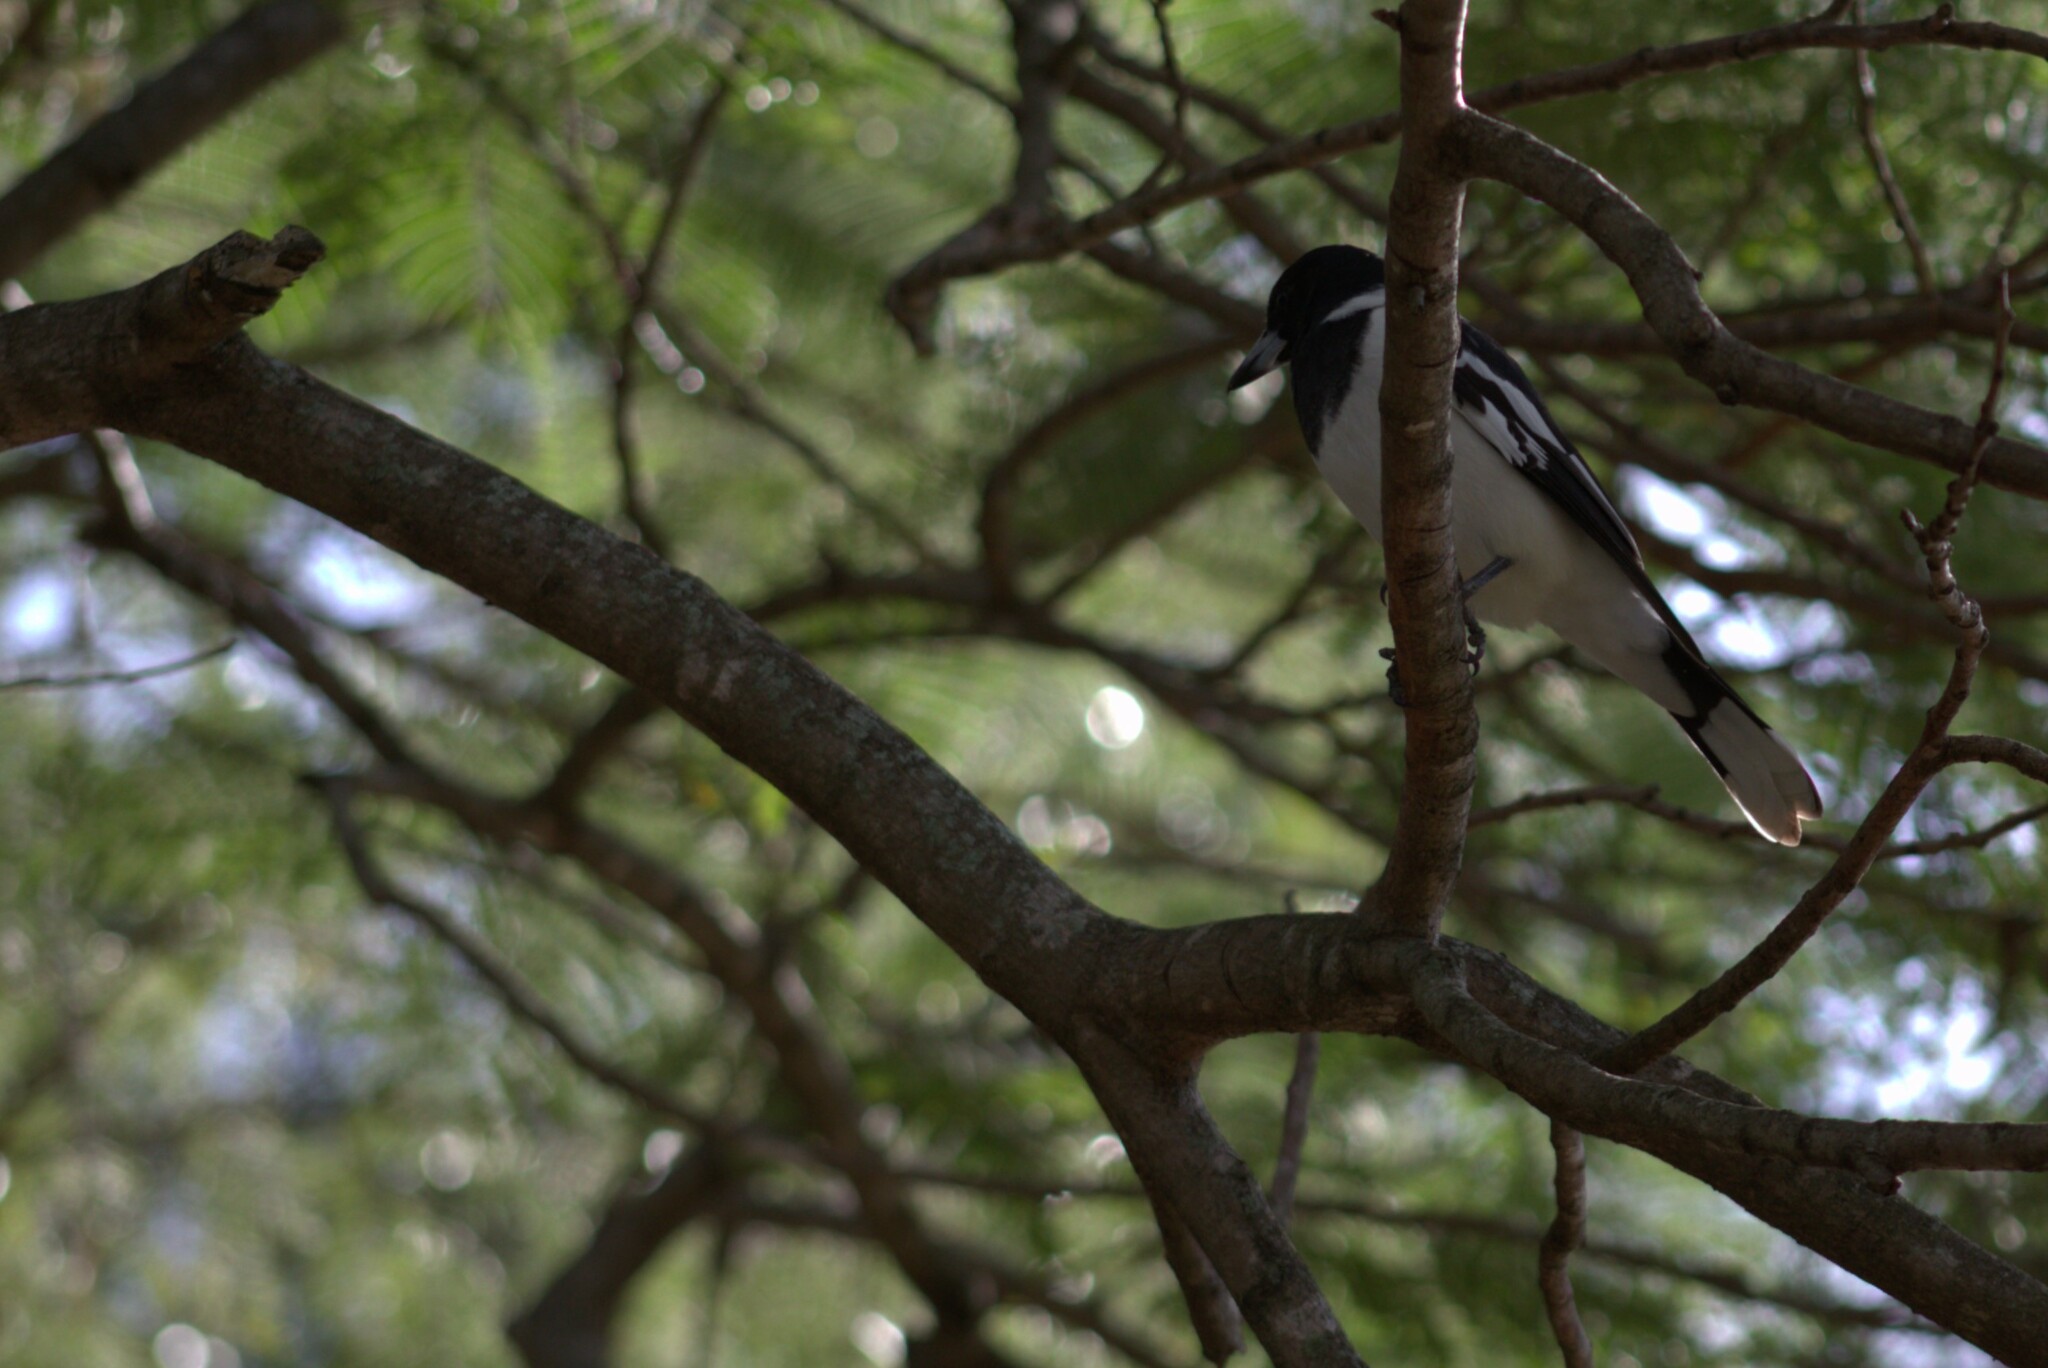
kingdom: Animalia
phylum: Chordata
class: Aves
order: Passeriformes
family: Cracticidae
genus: Cracticus
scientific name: Cracticus nigrogularis
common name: Pied butcherbird
